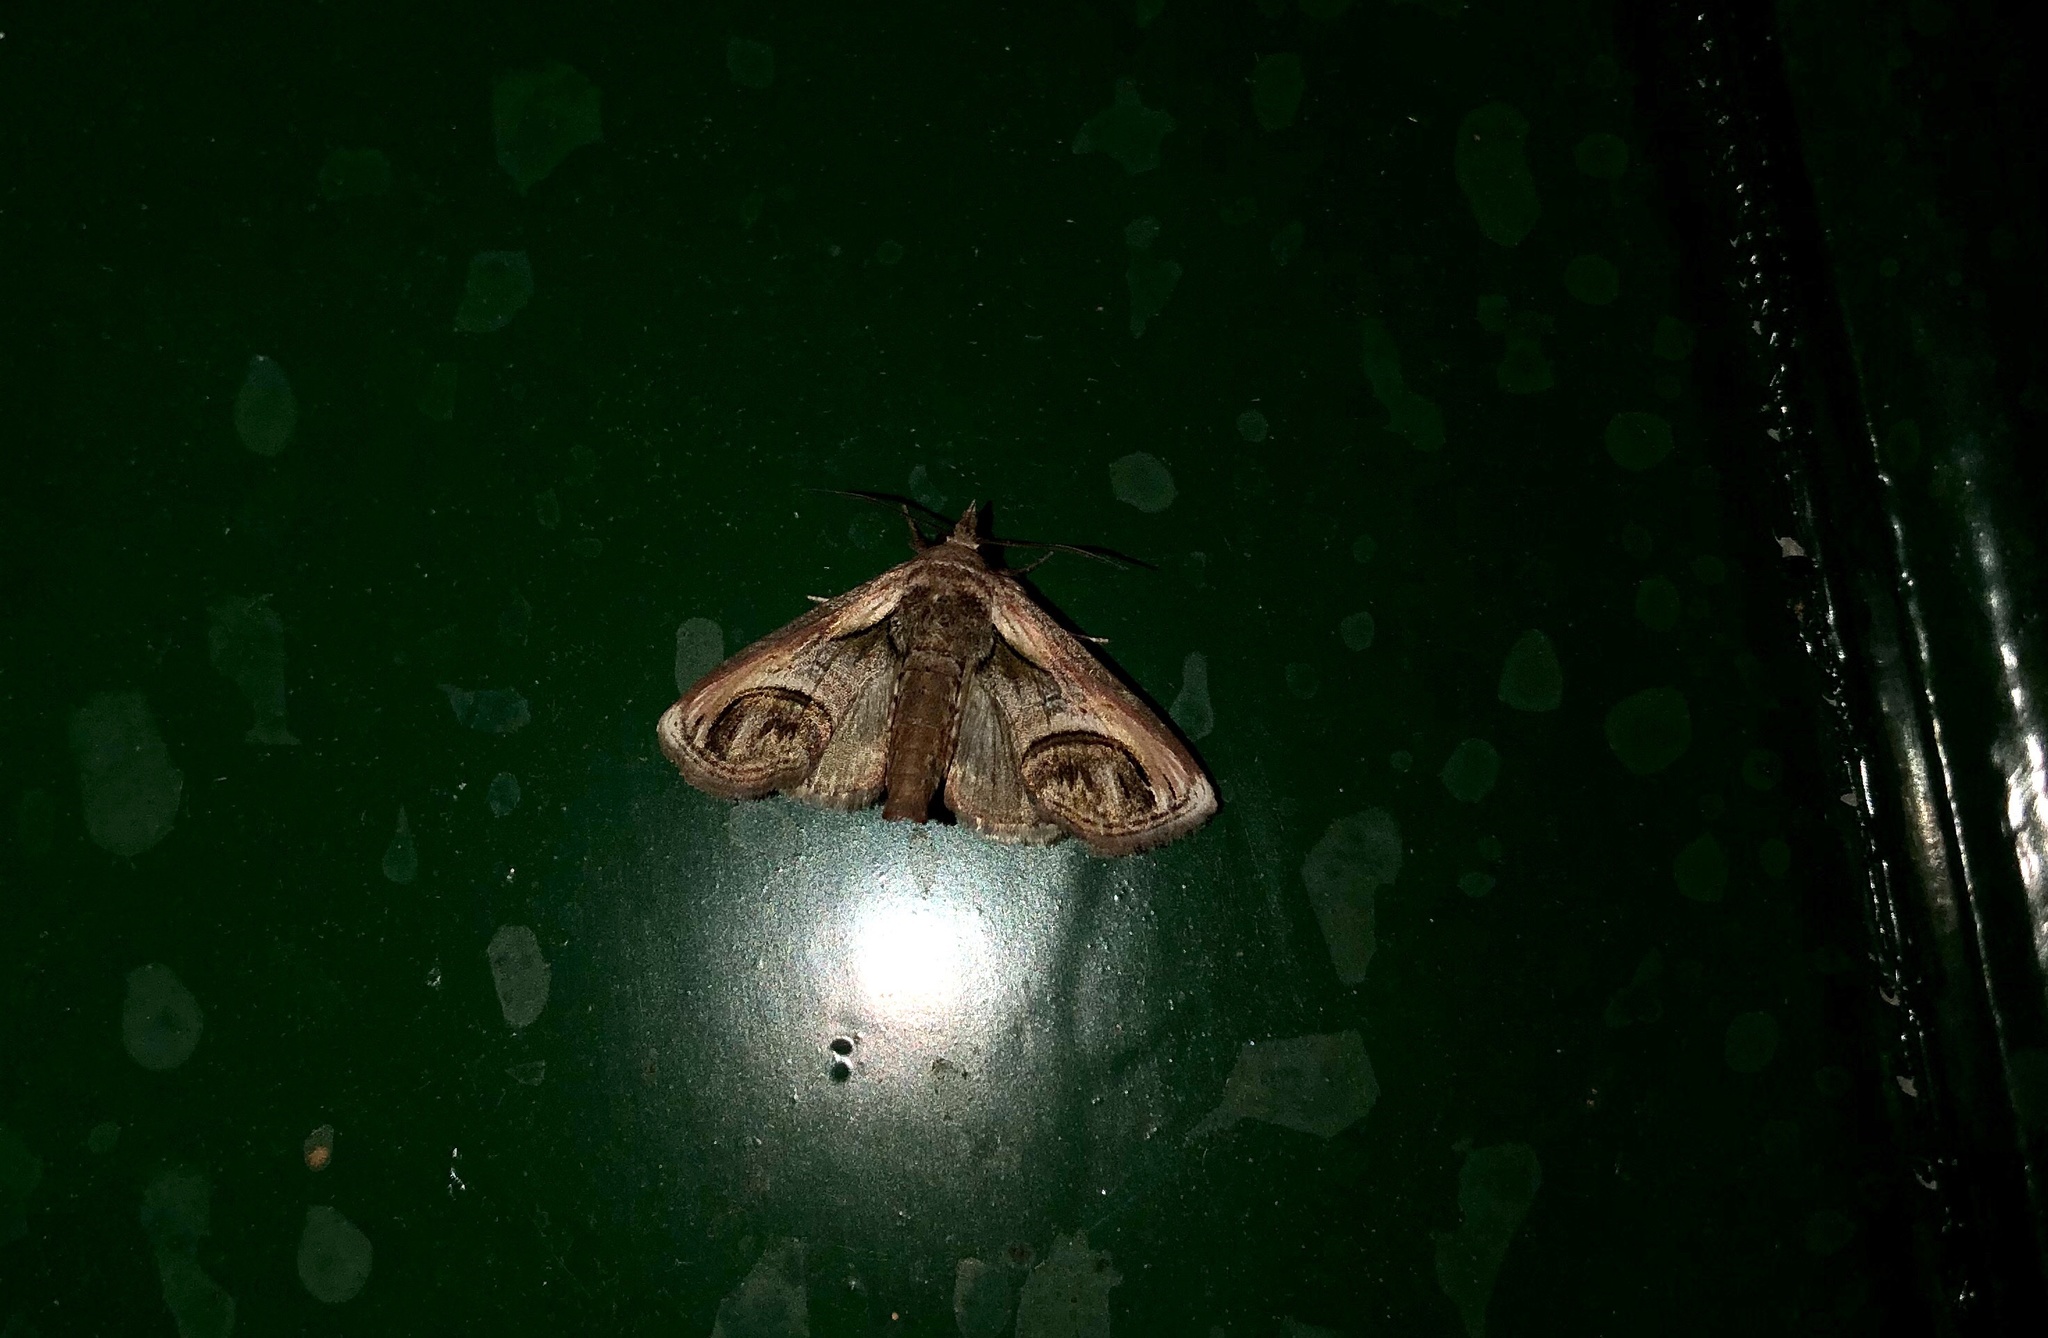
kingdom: Animalia
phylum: Arthropoda
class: Insecta
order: Lepidoptera
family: Euteliidae
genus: Paectes
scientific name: Paectes oculatrix
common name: Eyed paectes moth
